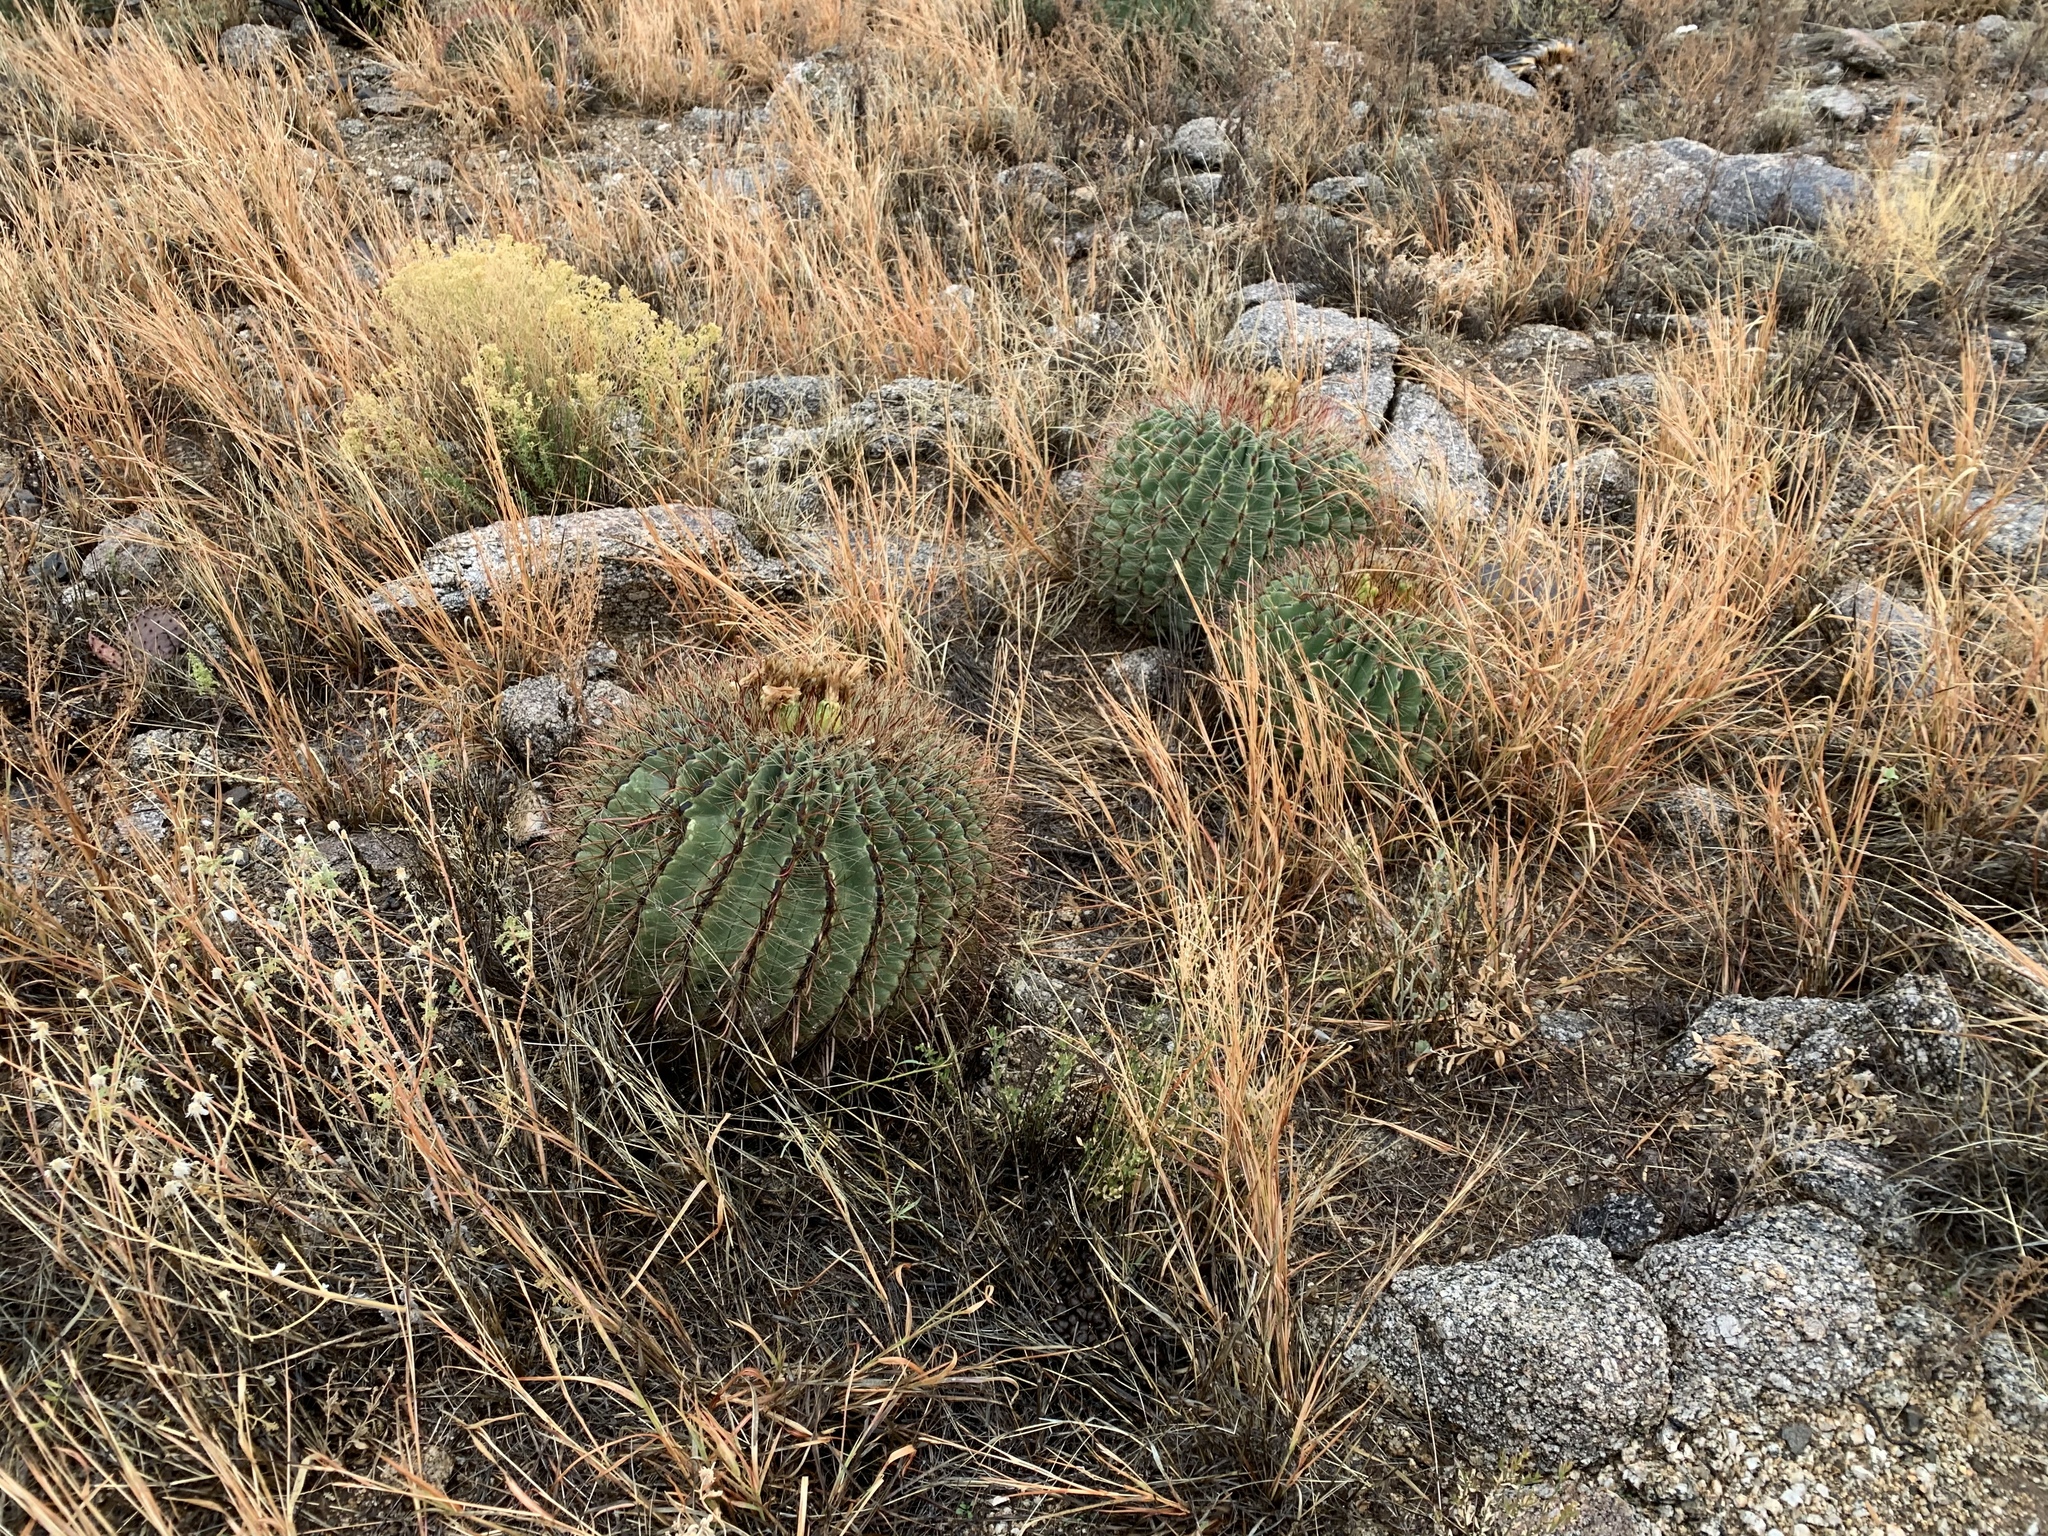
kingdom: Plantae
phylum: Tracheophyta
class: Magnoliopsida
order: Caryophyllales
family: Cactaceae
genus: Ferocactus
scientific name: Ferocactus wislizeni
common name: Candy barrel cactus
